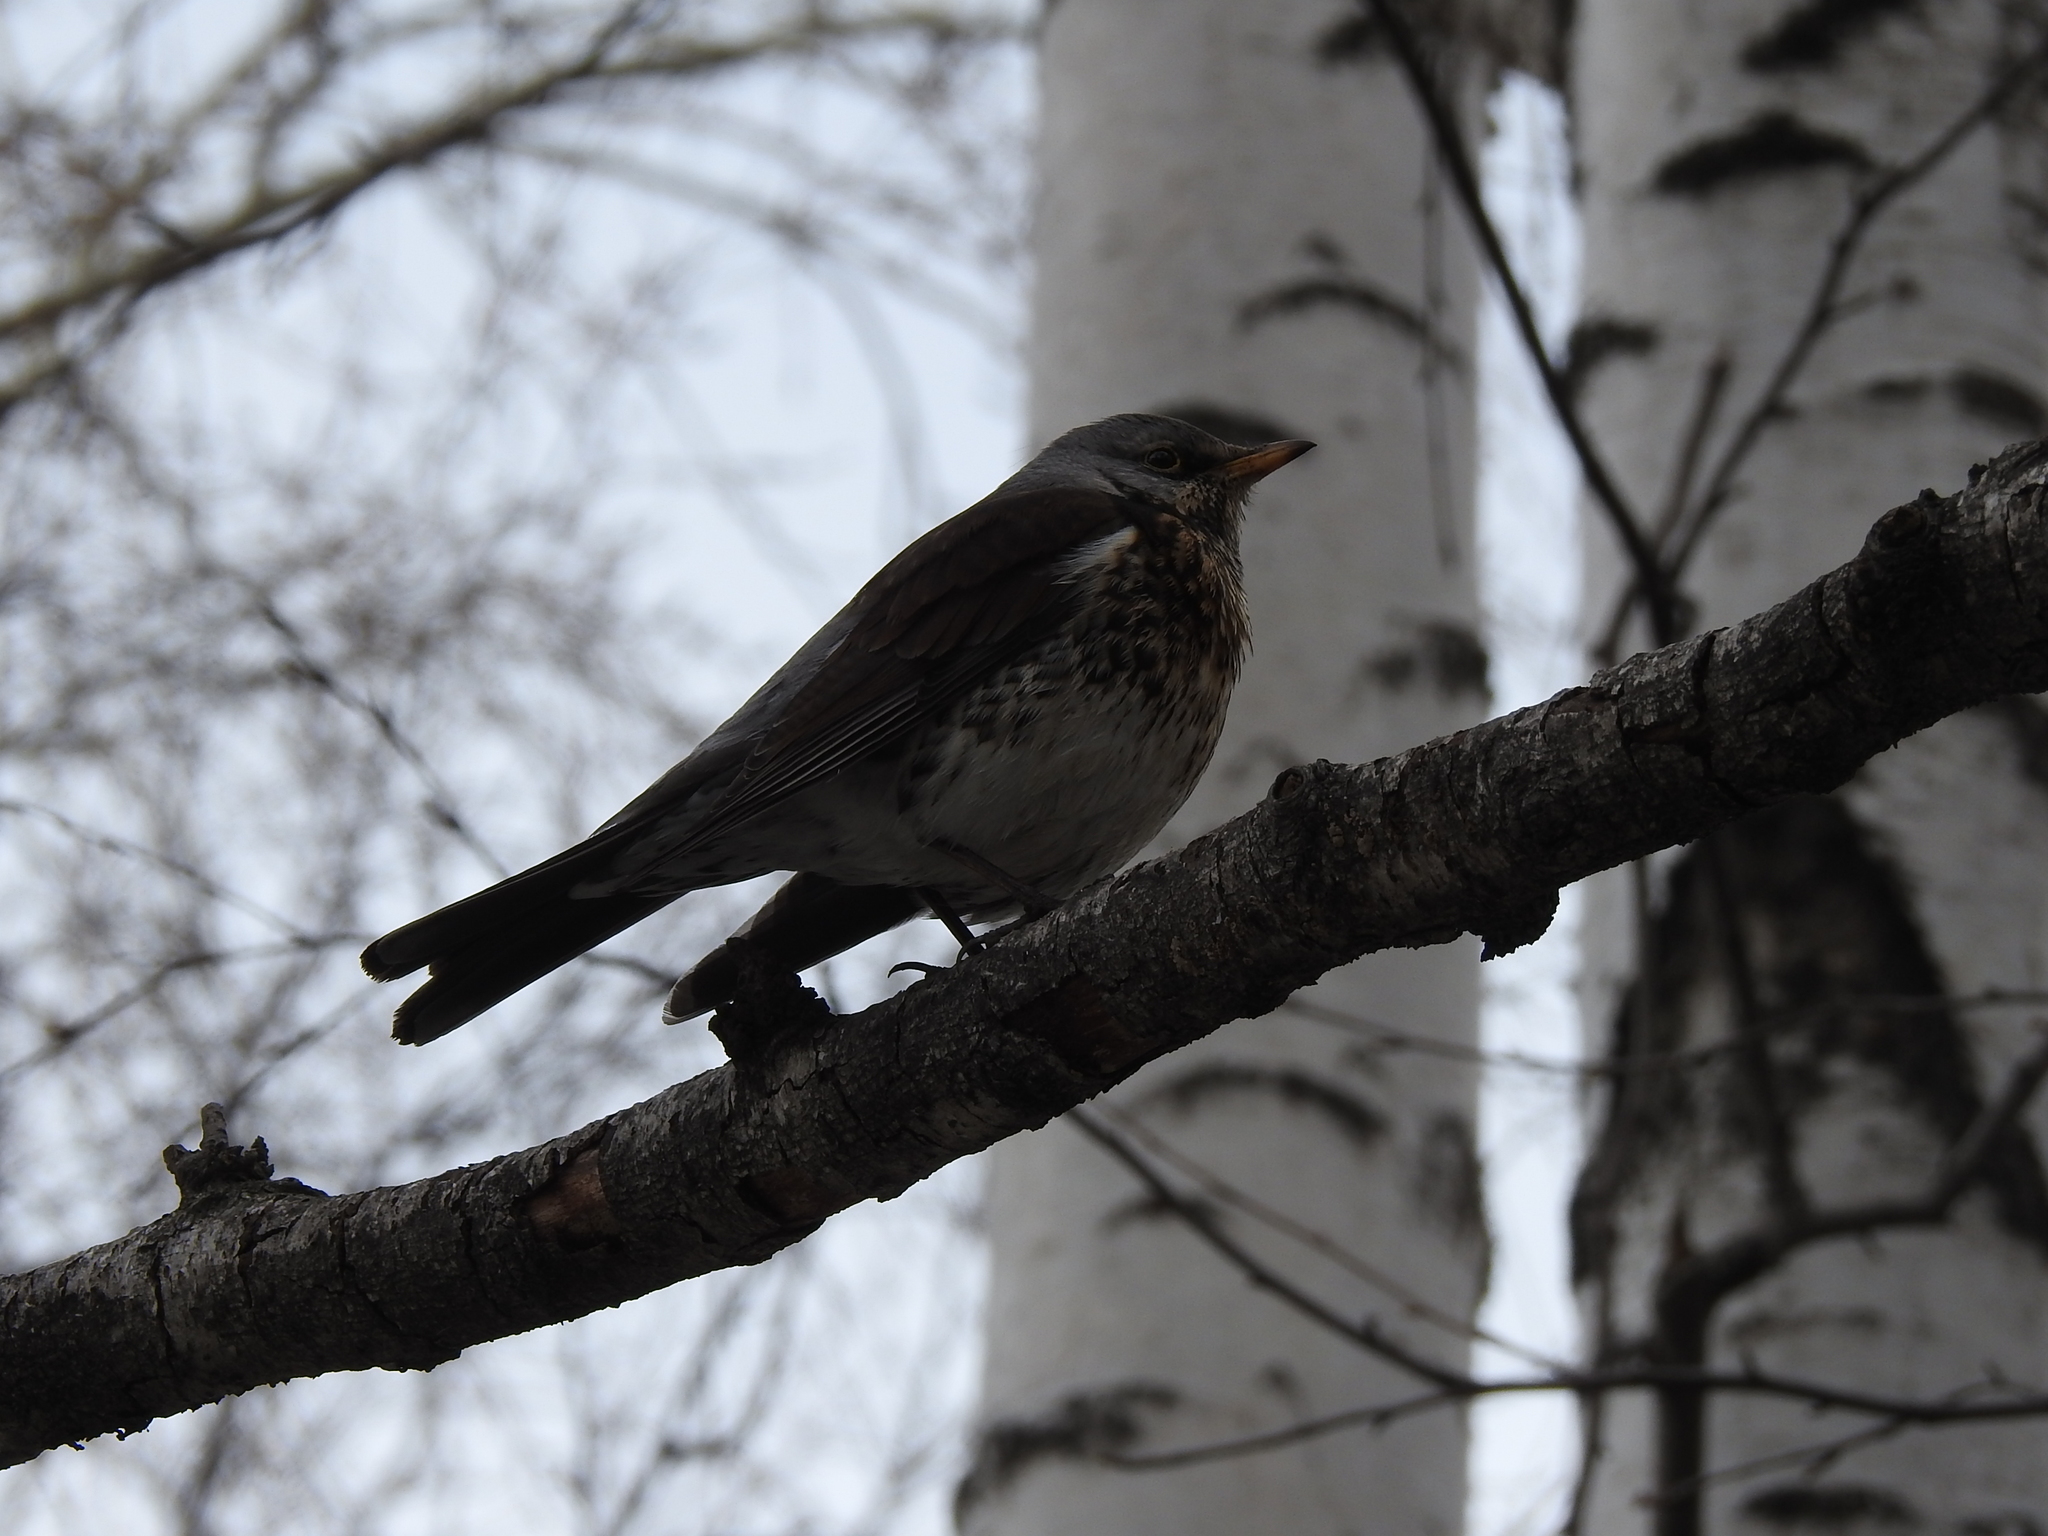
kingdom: Animalia
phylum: Chordata
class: Aves
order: Passeriformes
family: Turdidae
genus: Turdus
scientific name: Turdus pilaris
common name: Fieldfare
